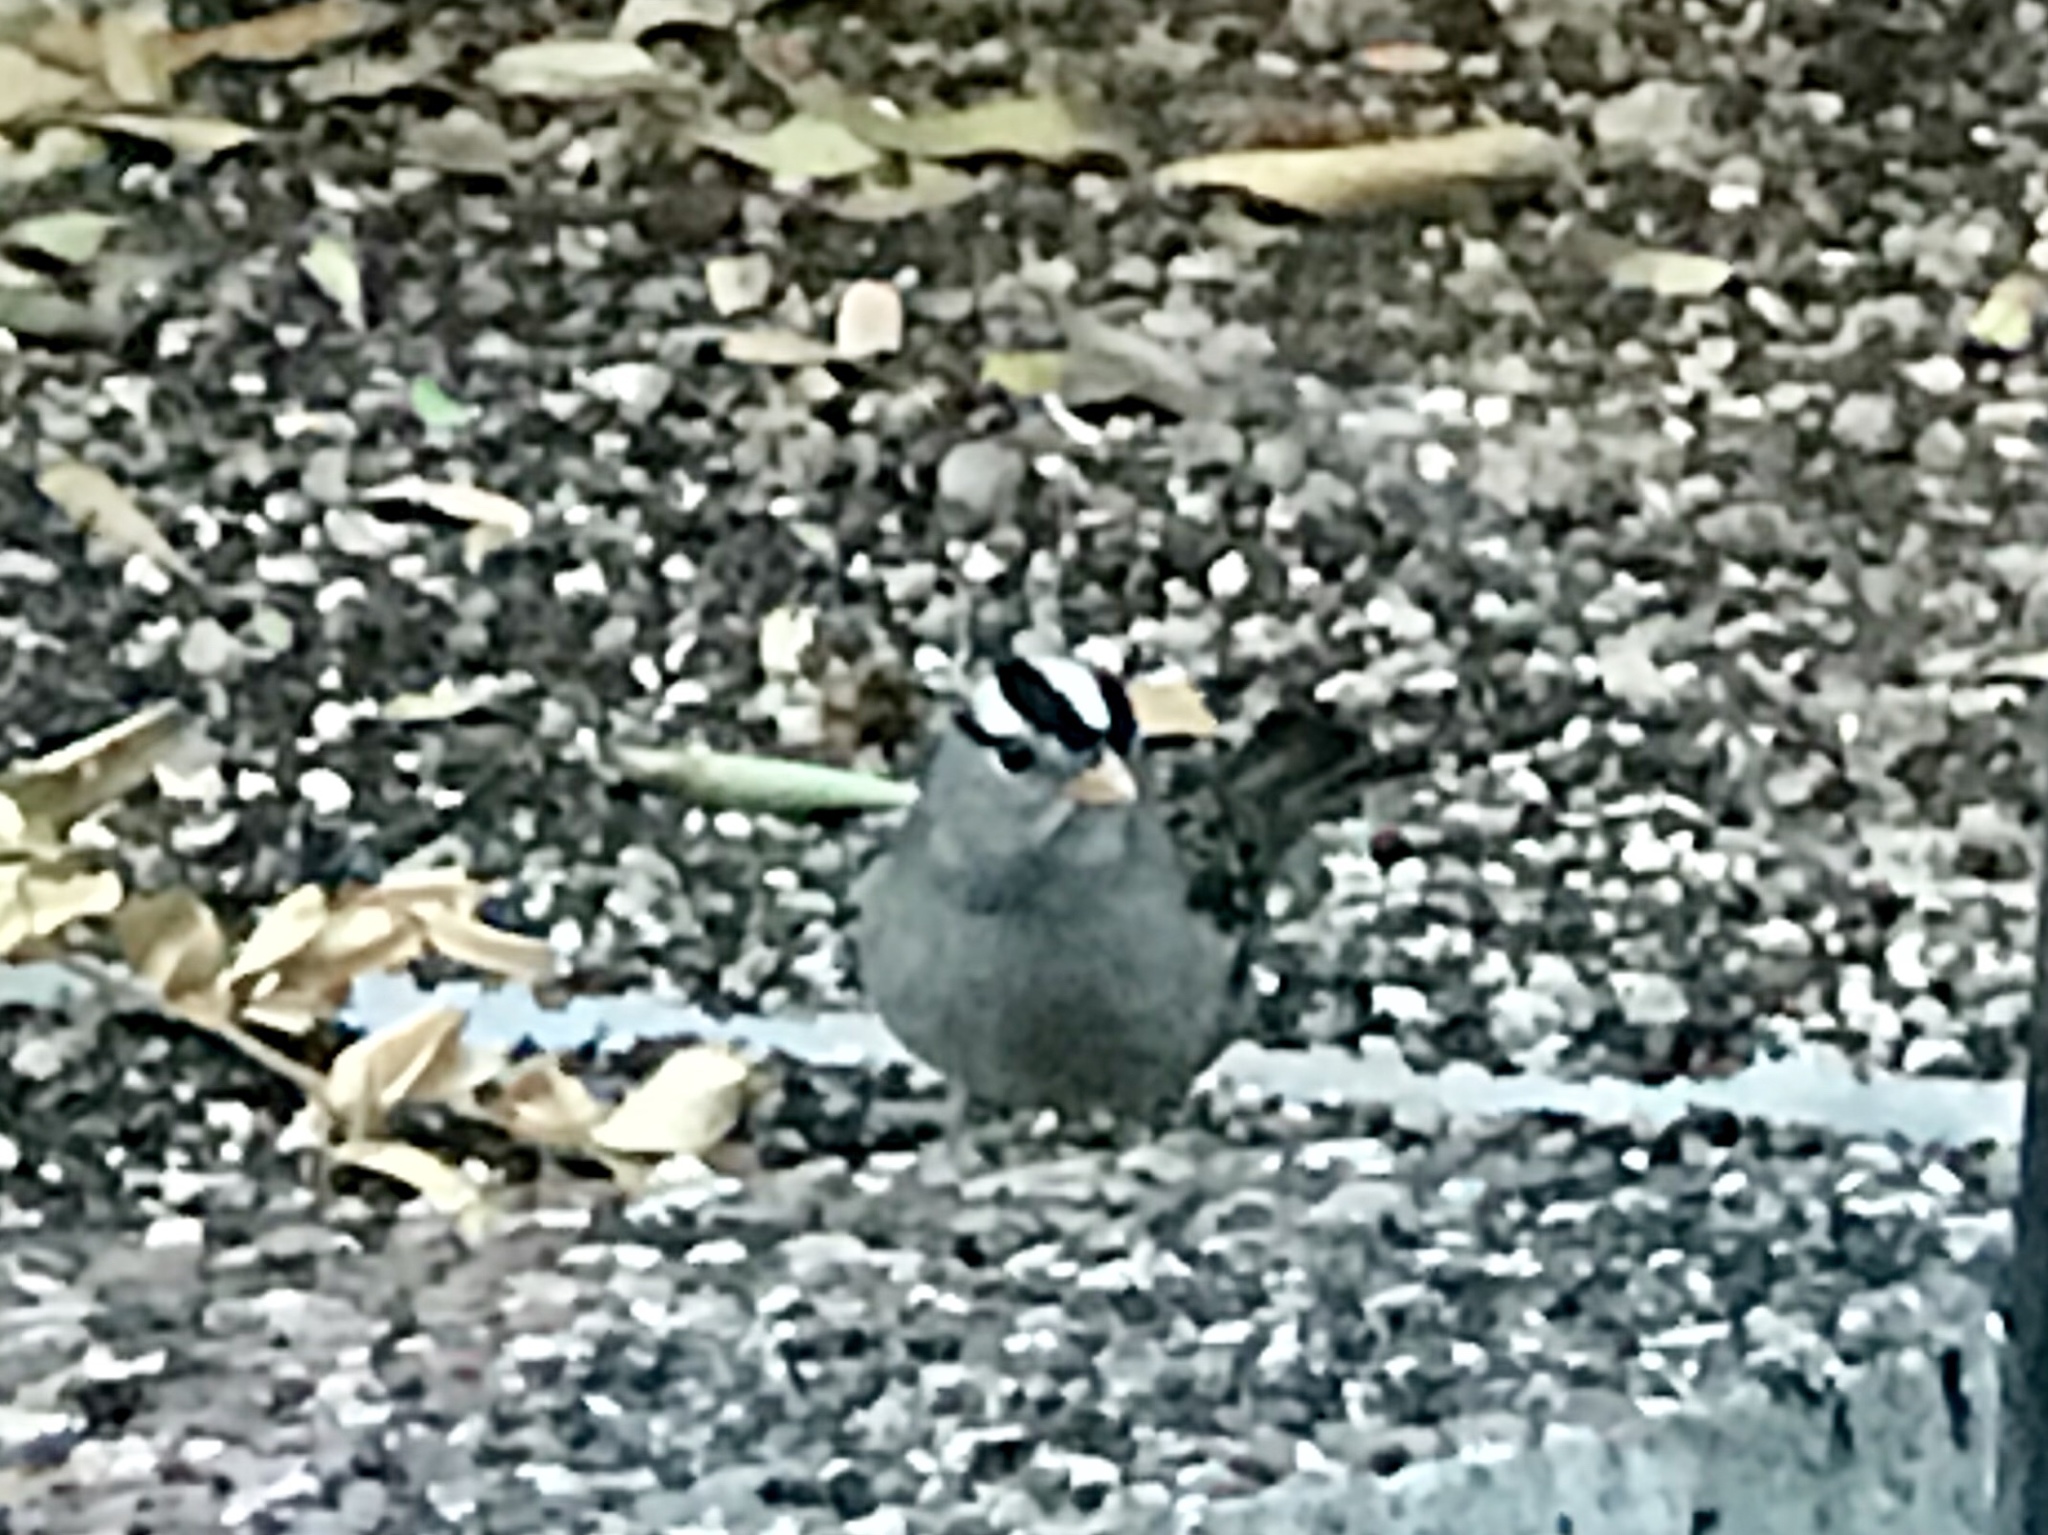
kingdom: Animalia
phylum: Chordata
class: Aves
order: Passeriformes
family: Passerellidae
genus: Zonotrichia
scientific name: Zonotrichia leucophrys
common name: White-crowned sparrow
